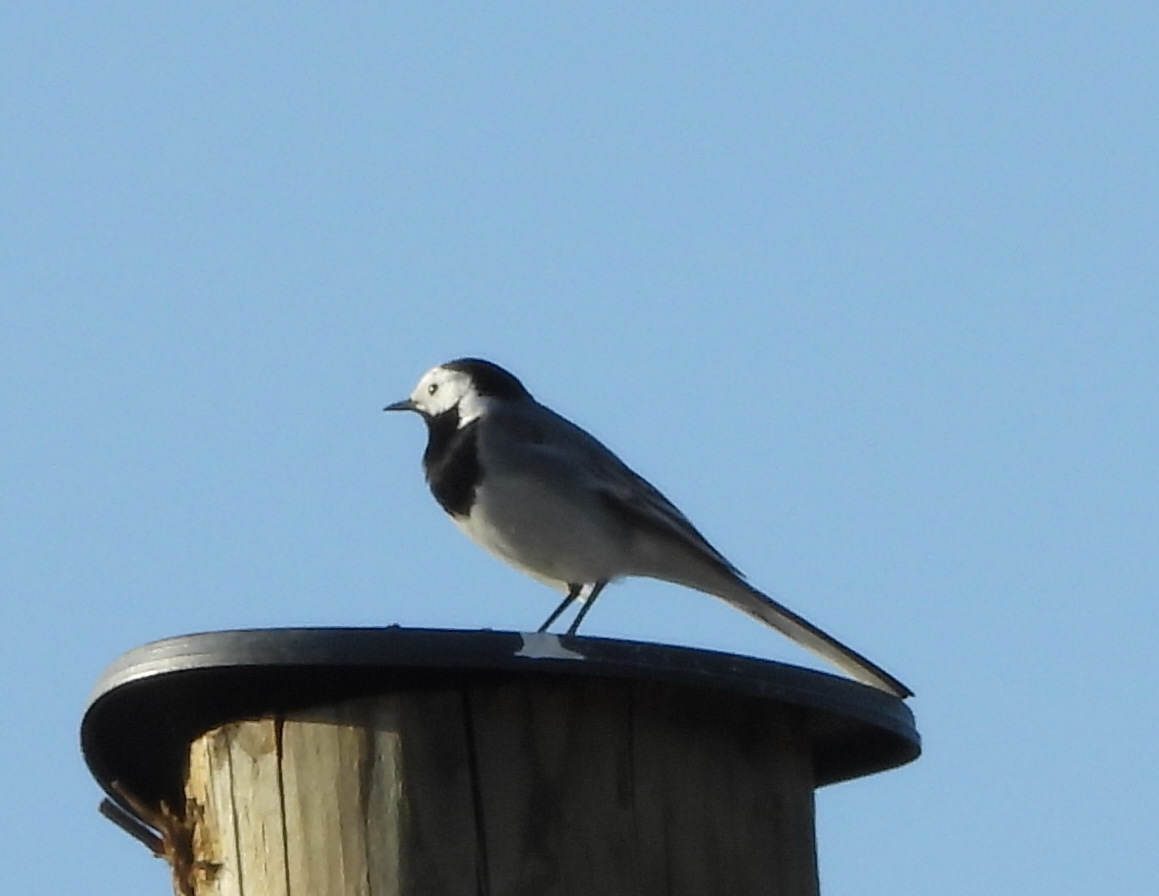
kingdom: Animalia
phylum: Chordata
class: Aves
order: Passeriformes
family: Motacillidae
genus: Motacilla
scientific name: Motacilla alba
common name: White wagtail
